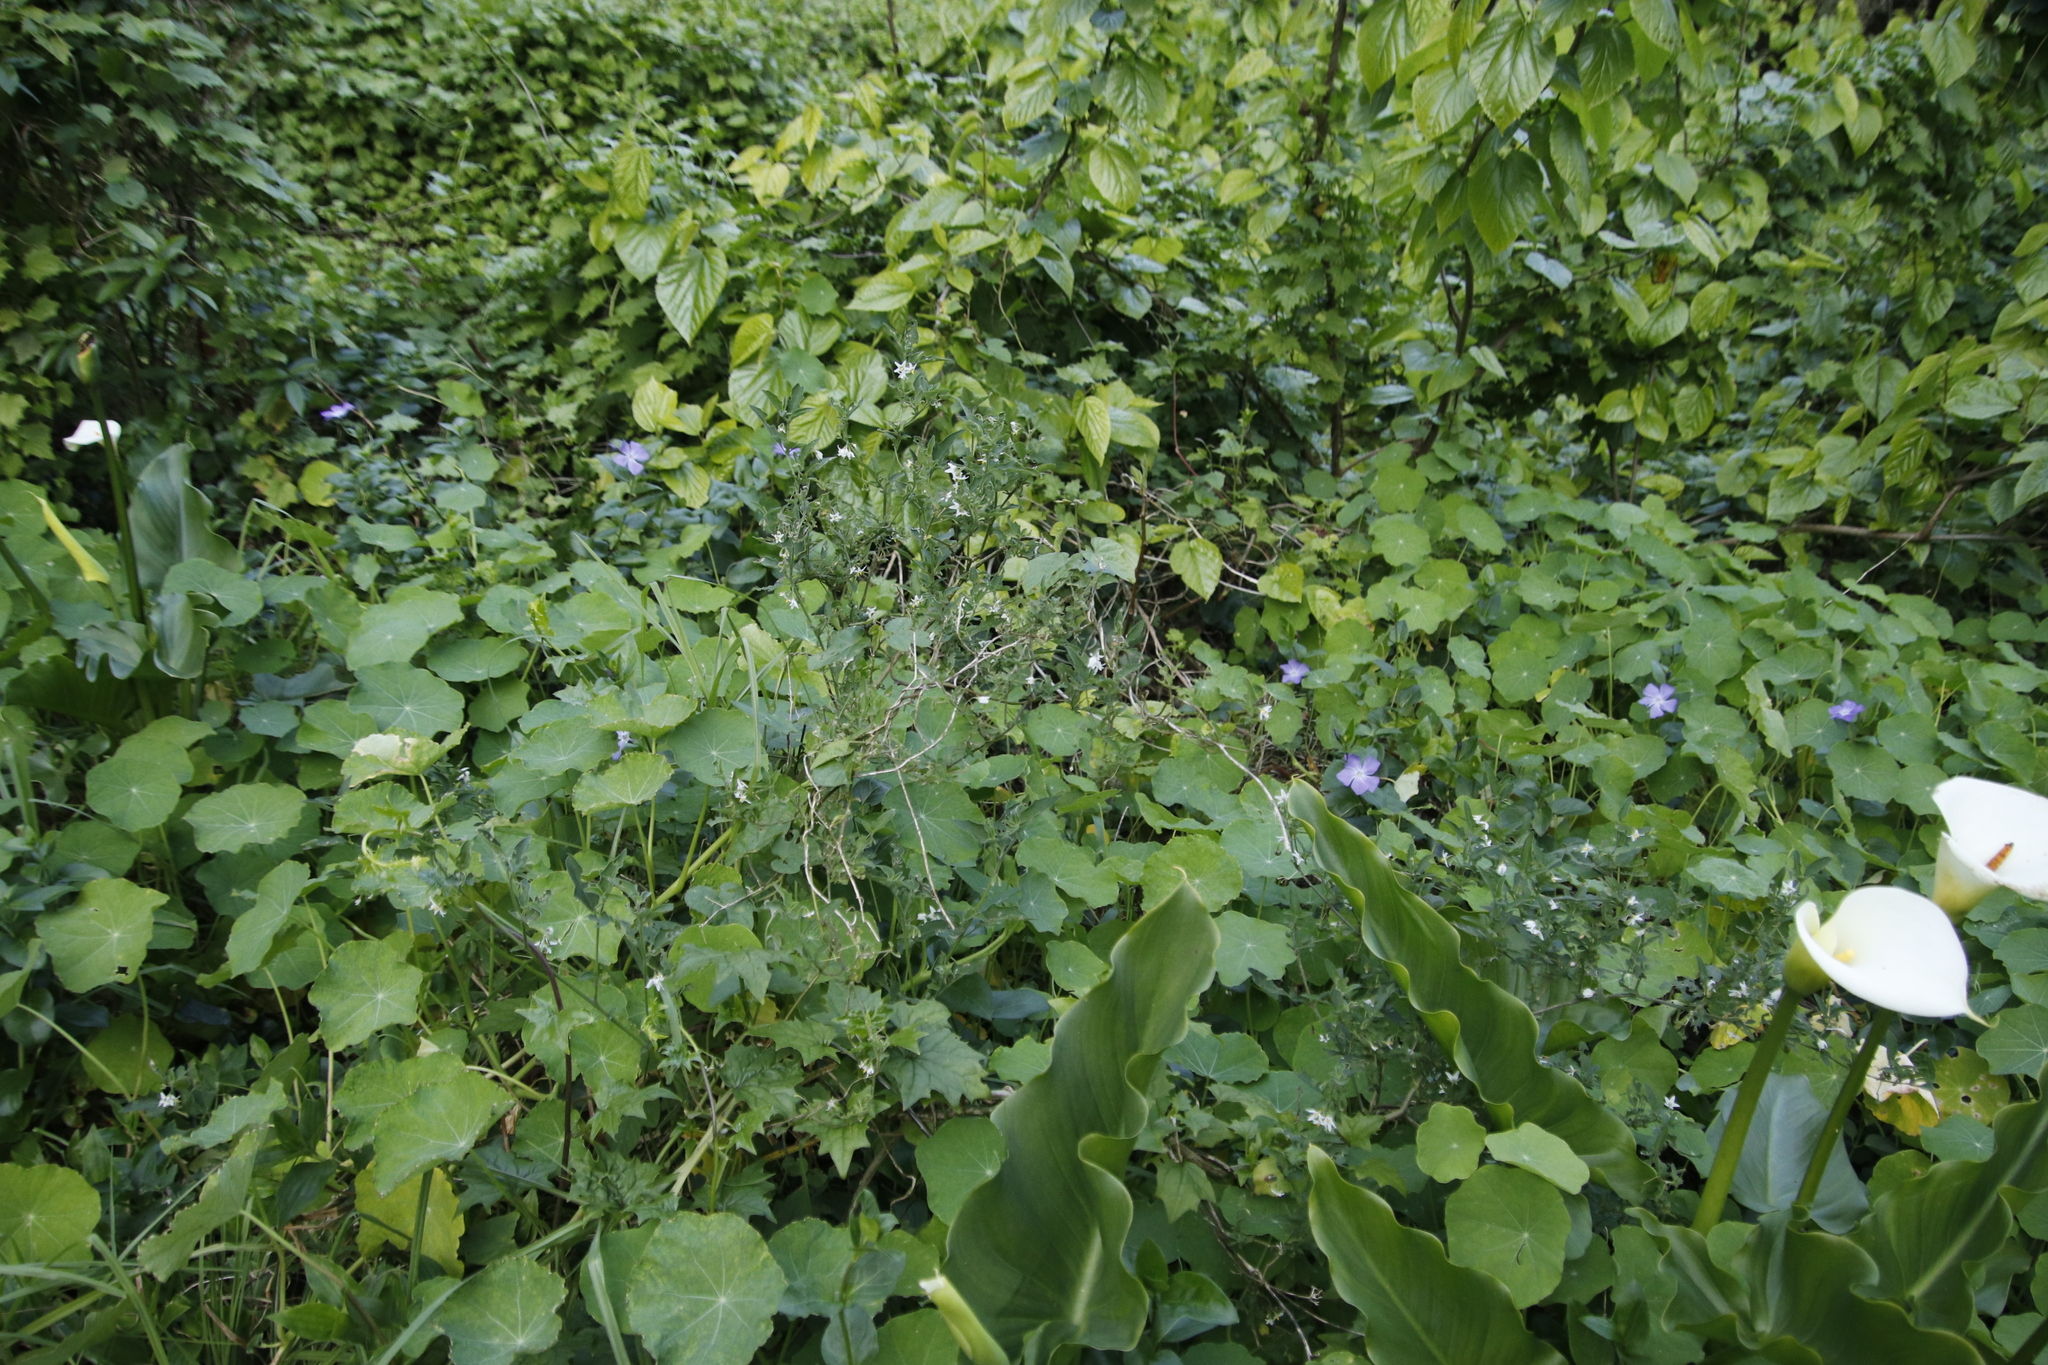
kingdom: Plantae
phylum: Tracheophyta
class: Magnoliopsida
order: Solanales
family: Solanaceae
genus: Solanum
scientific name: Solanum chenopodioides
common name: Tall nightshade
